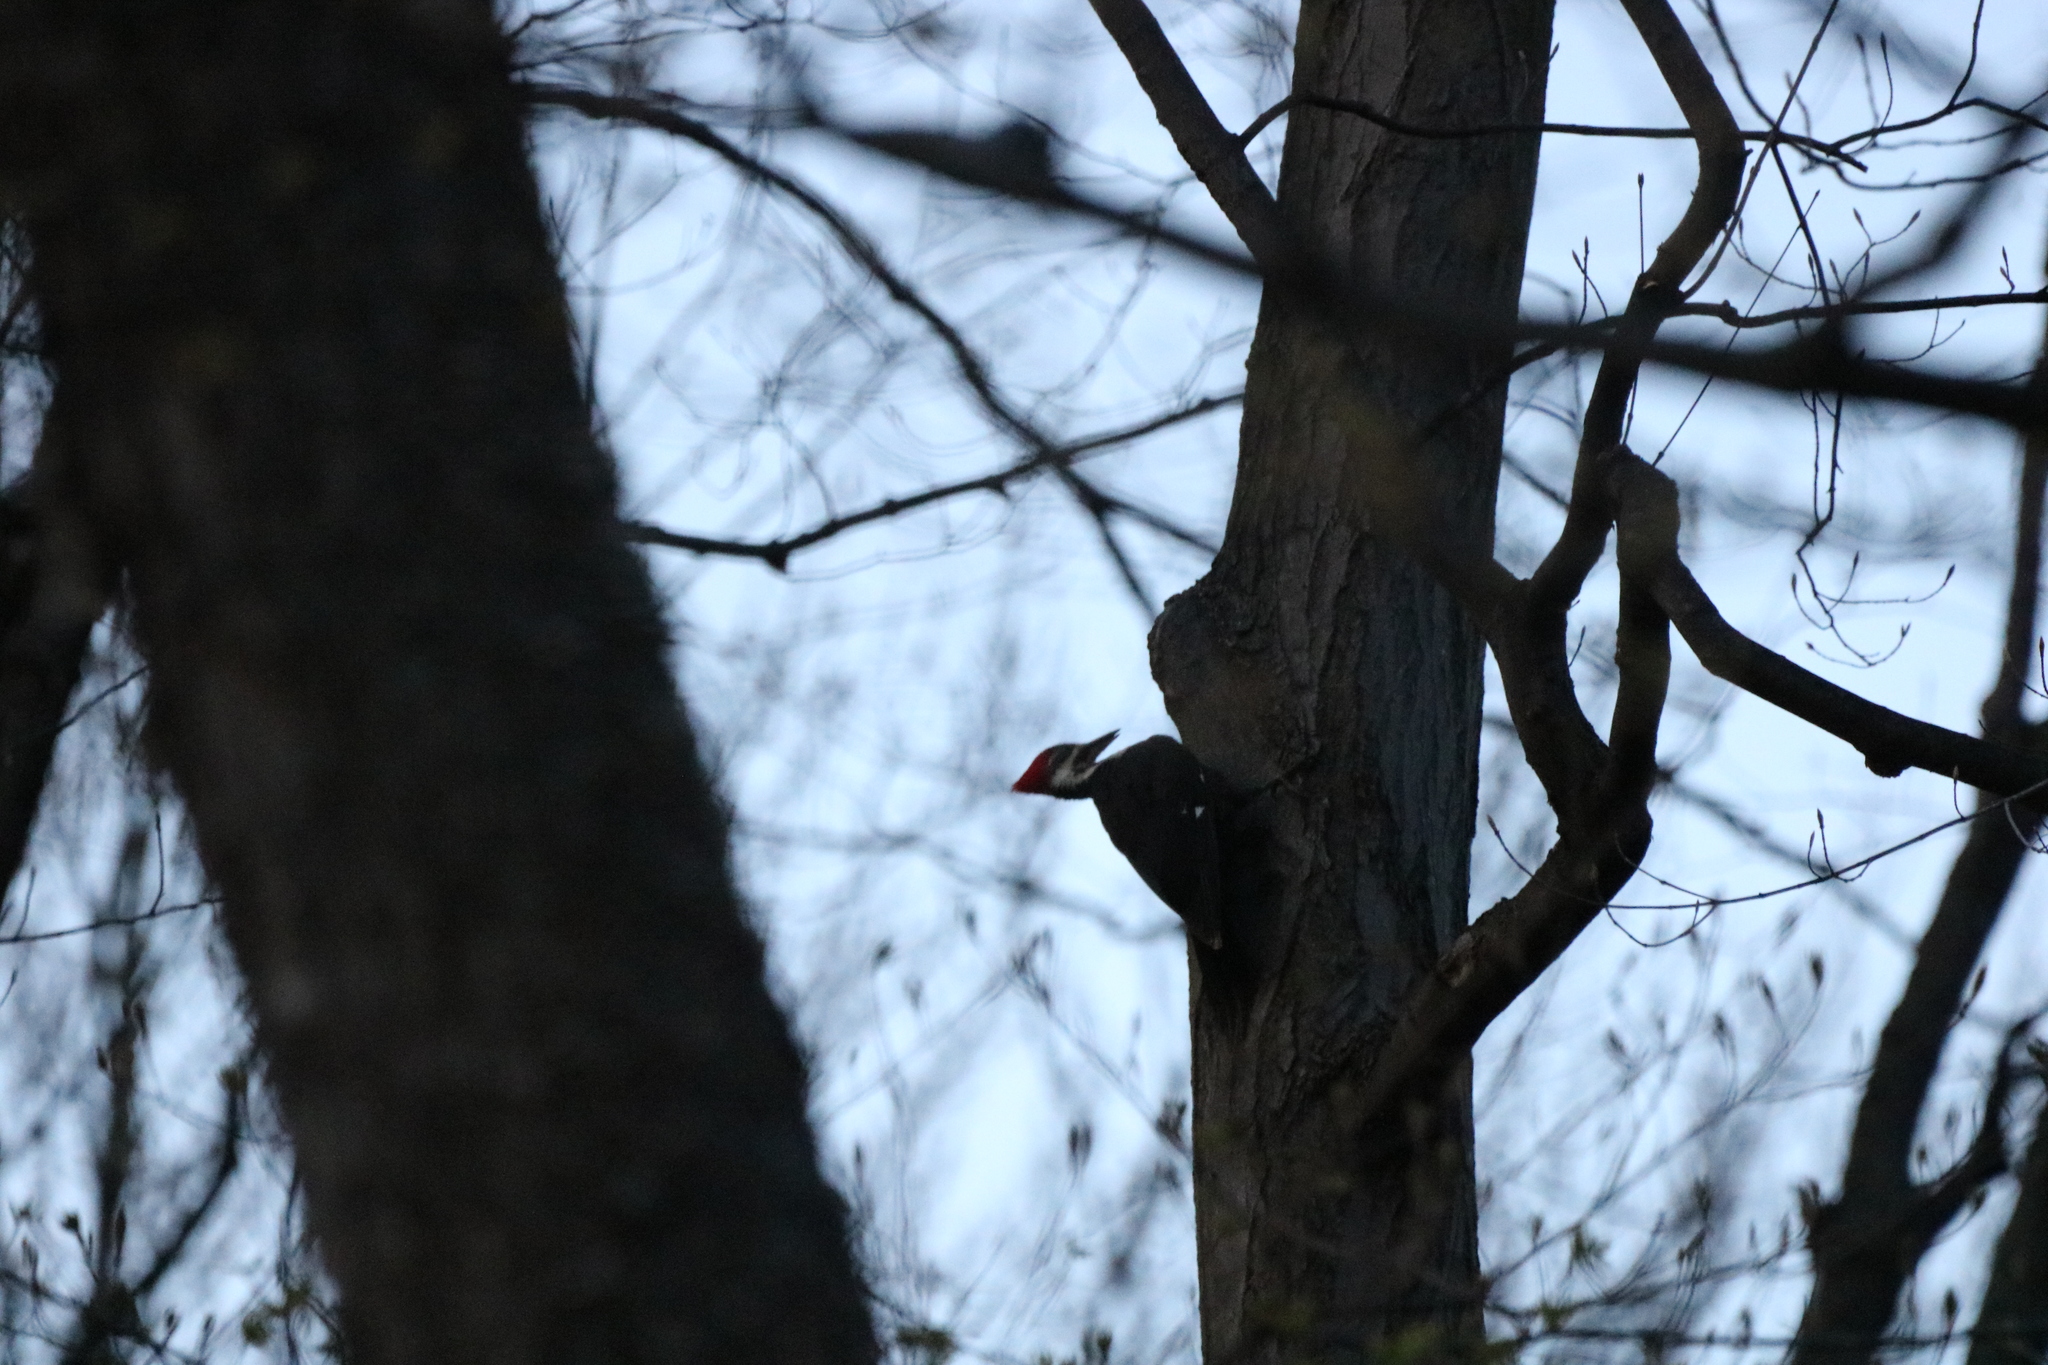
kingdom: Animalia
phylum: Chordata
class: Aves
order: Piciformes
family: Picidae
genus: Dryocopus
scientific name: Dryocopus pileatus
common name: Pileated woodpecker
